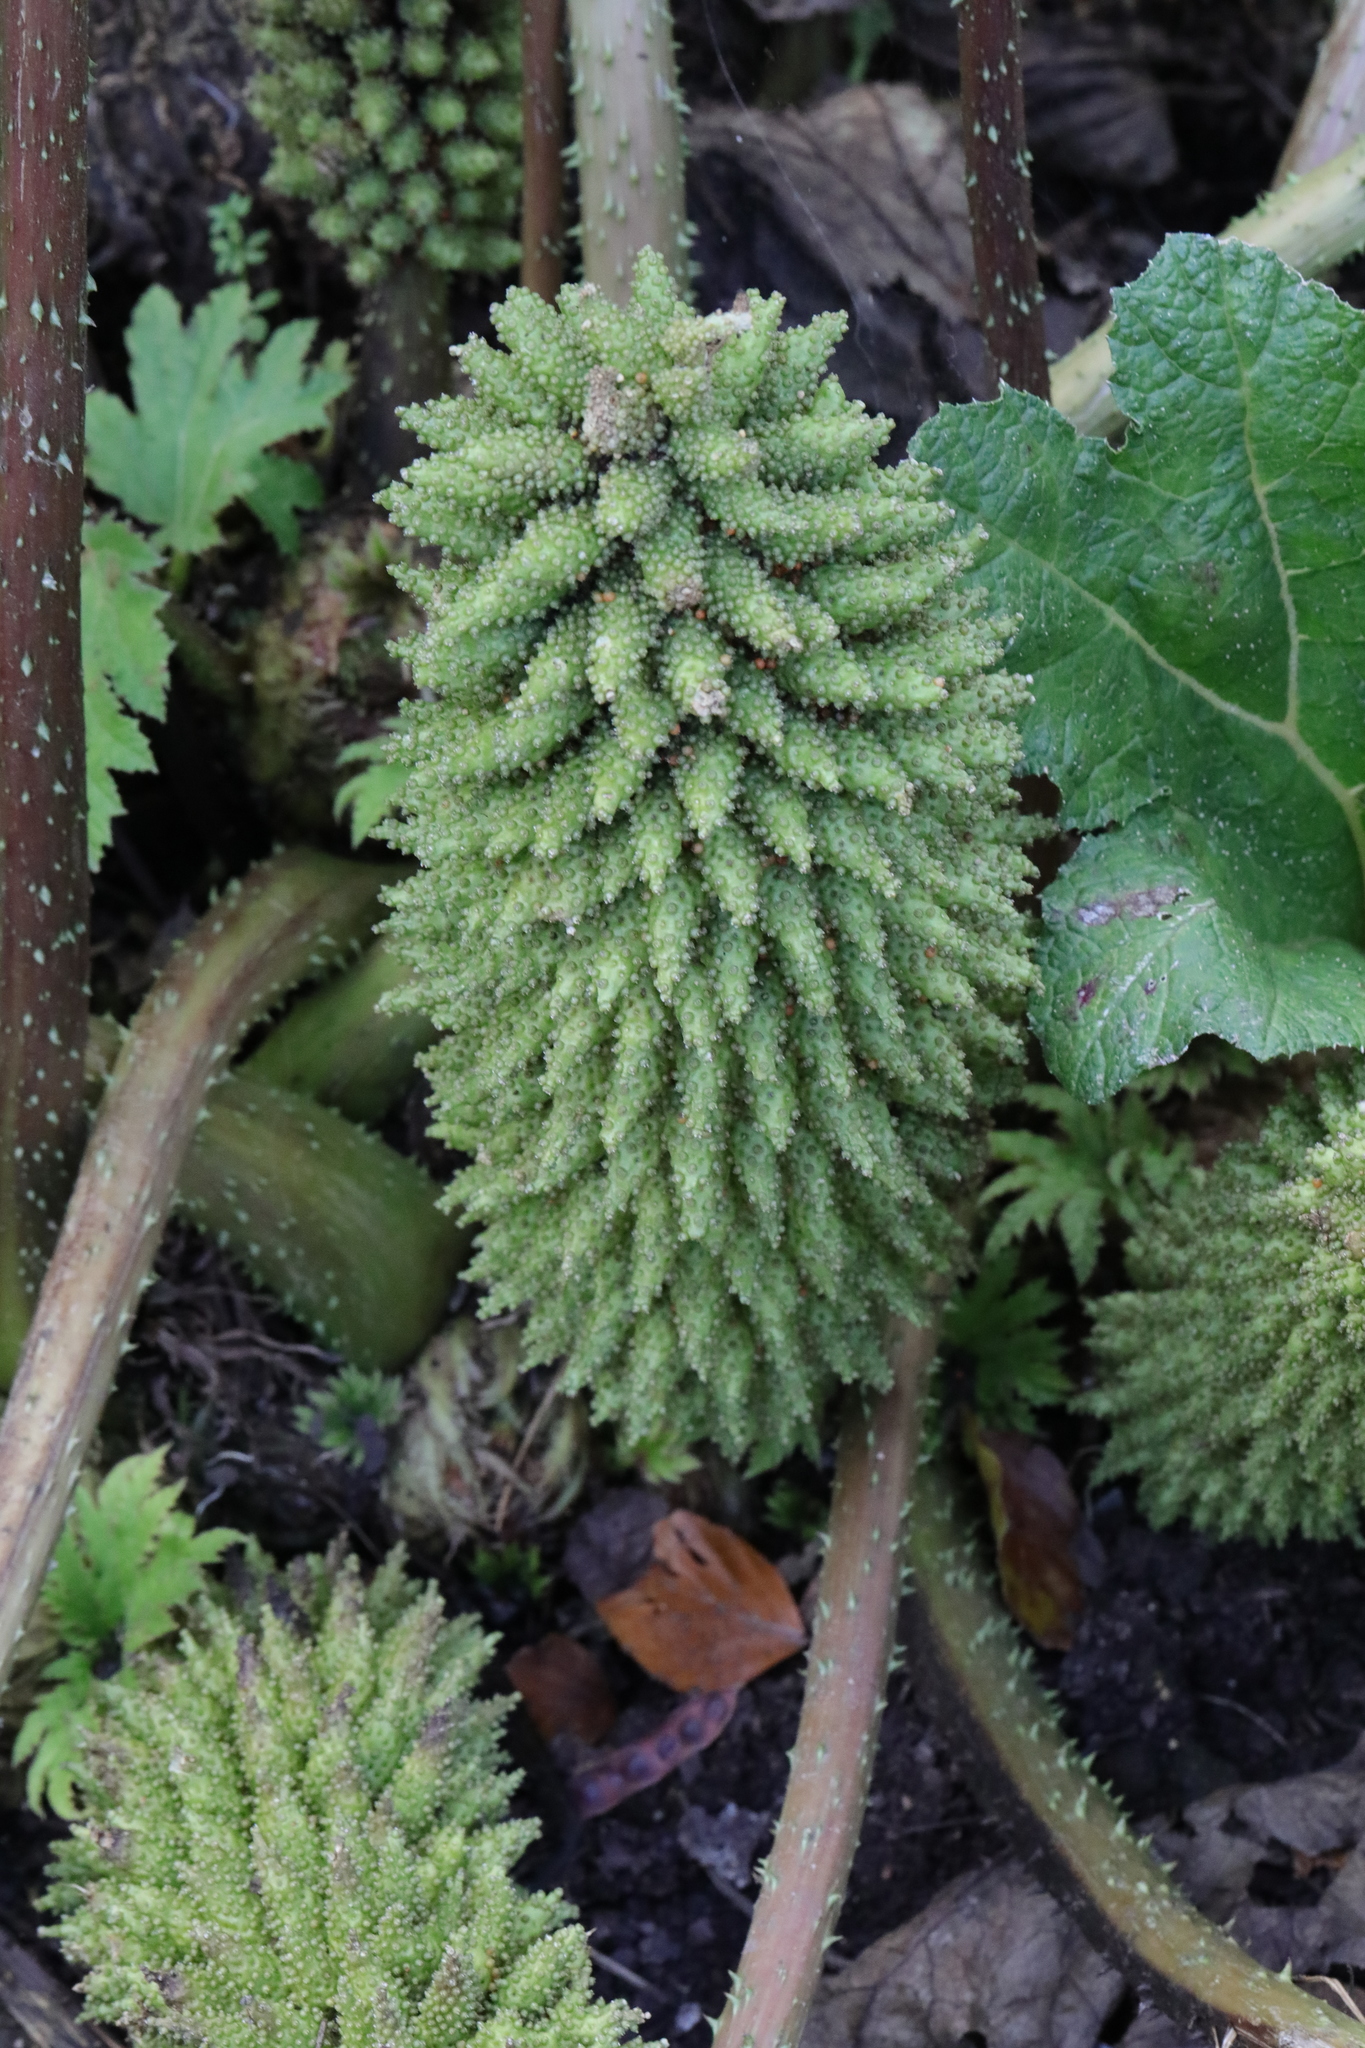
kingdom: Plantae
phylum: Tracheophyta
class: Magnoliopsida
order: Gunnerales
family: Gunneraceae
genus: Gunnera
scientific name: Gunnera tinctoria
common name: Giant-rhubarb
